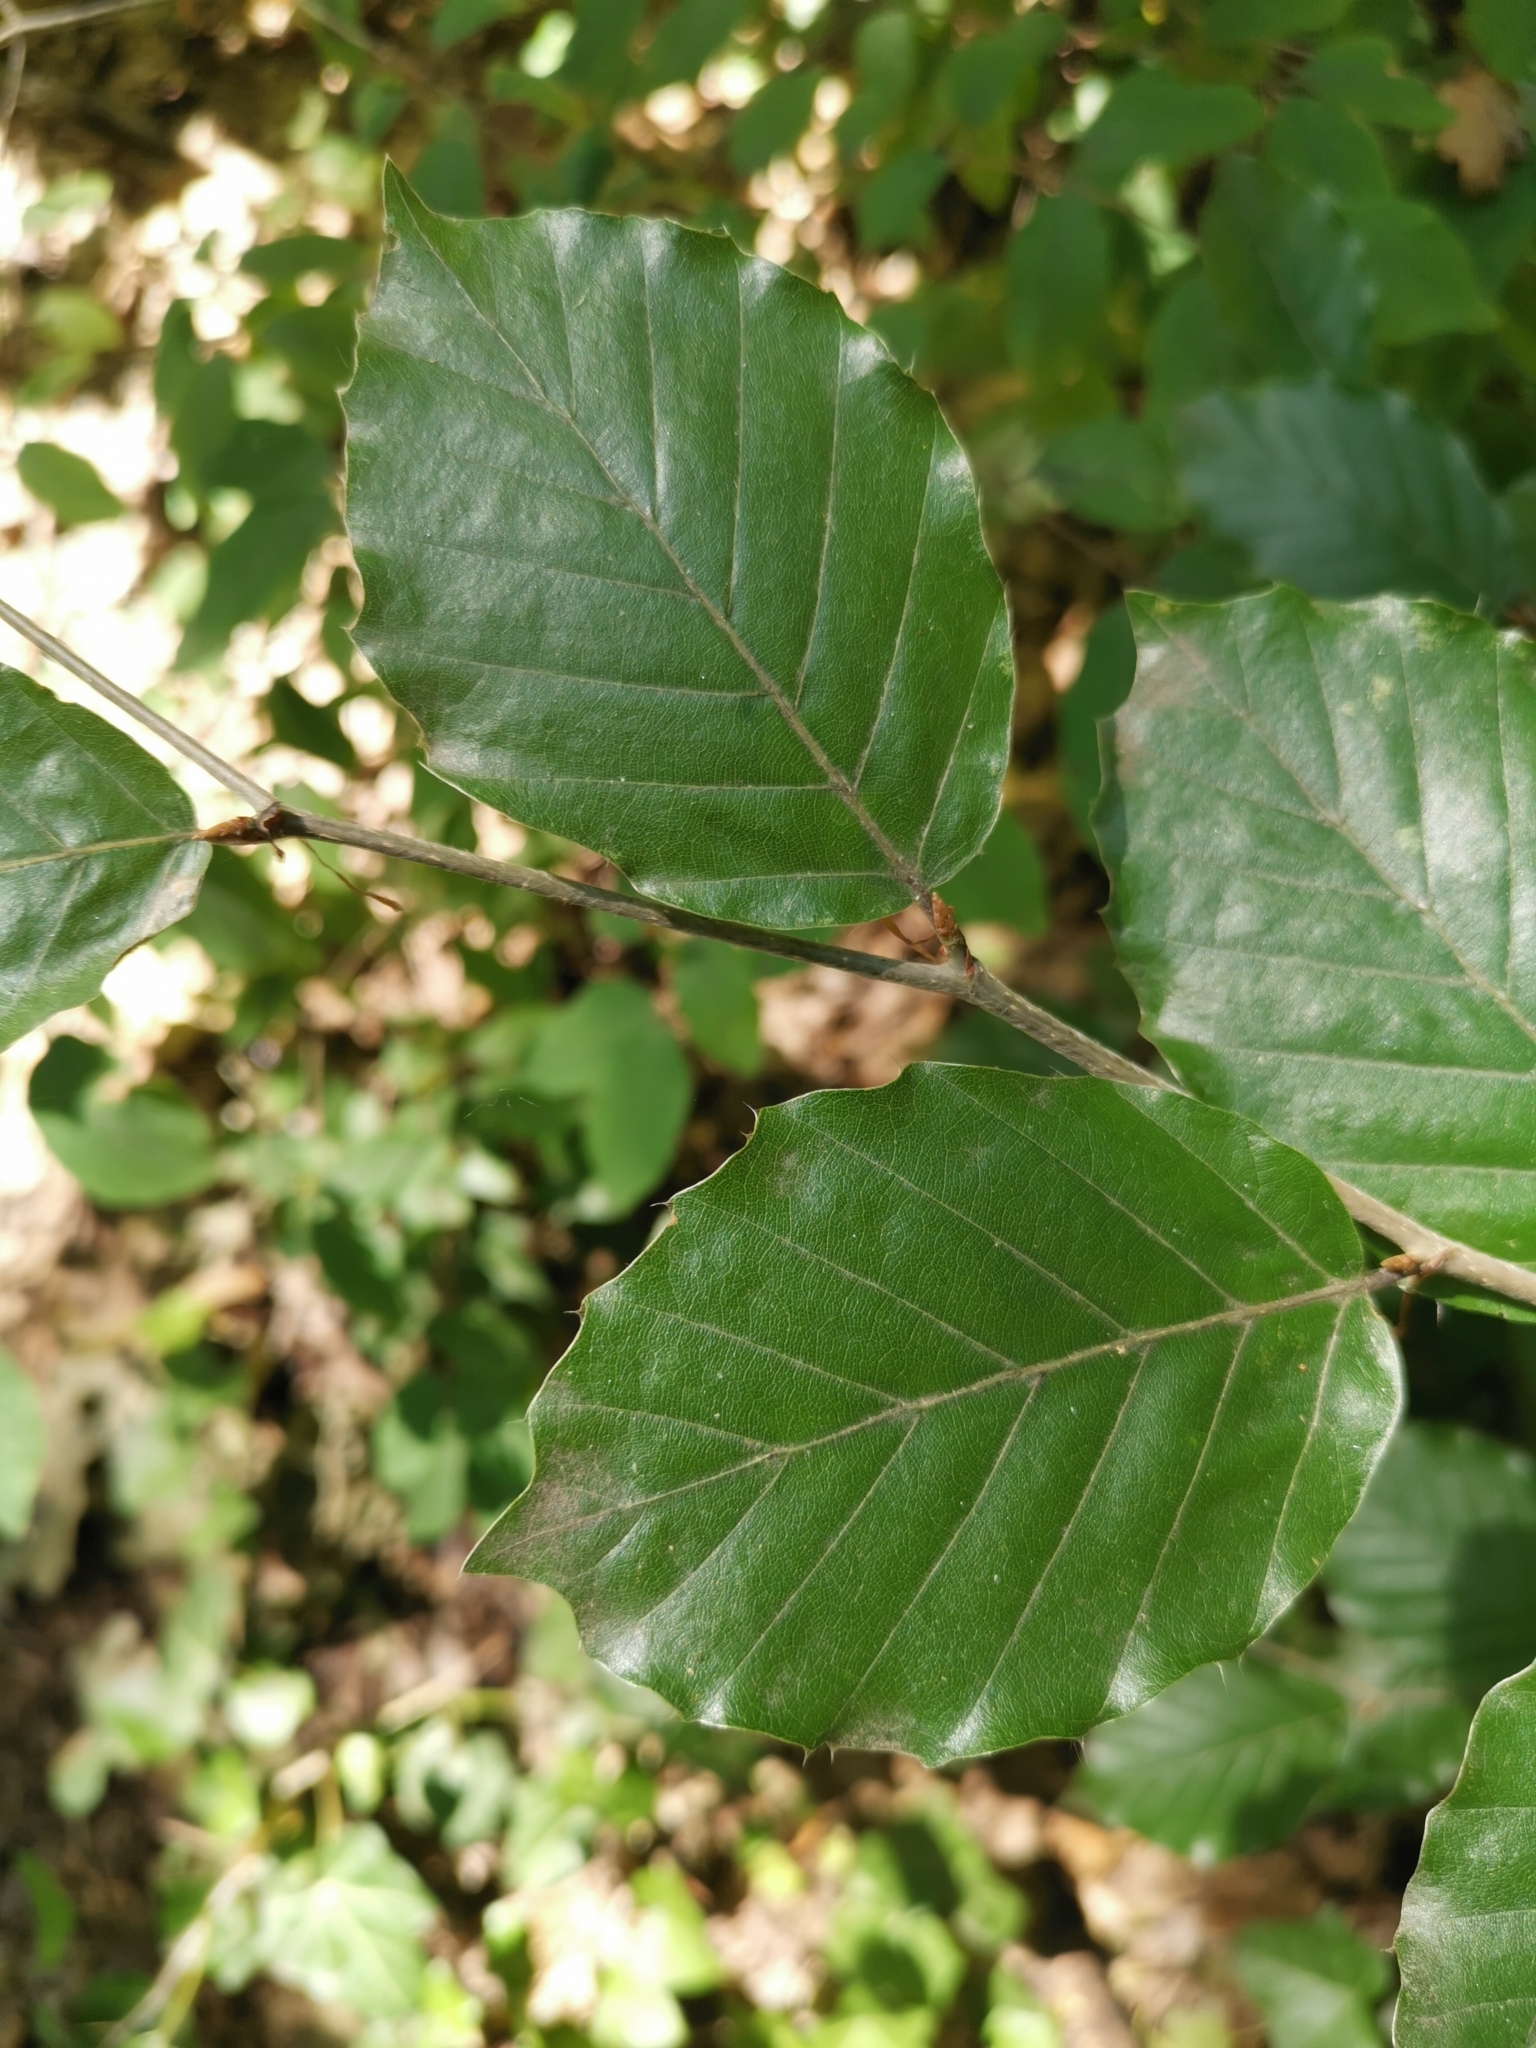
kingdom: Plantae
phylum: Tracheophyta
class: Magnoliopsida
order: Fagales
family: Fagaceae
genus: Fagus
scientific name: Fagus sylvatica
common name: Beech
